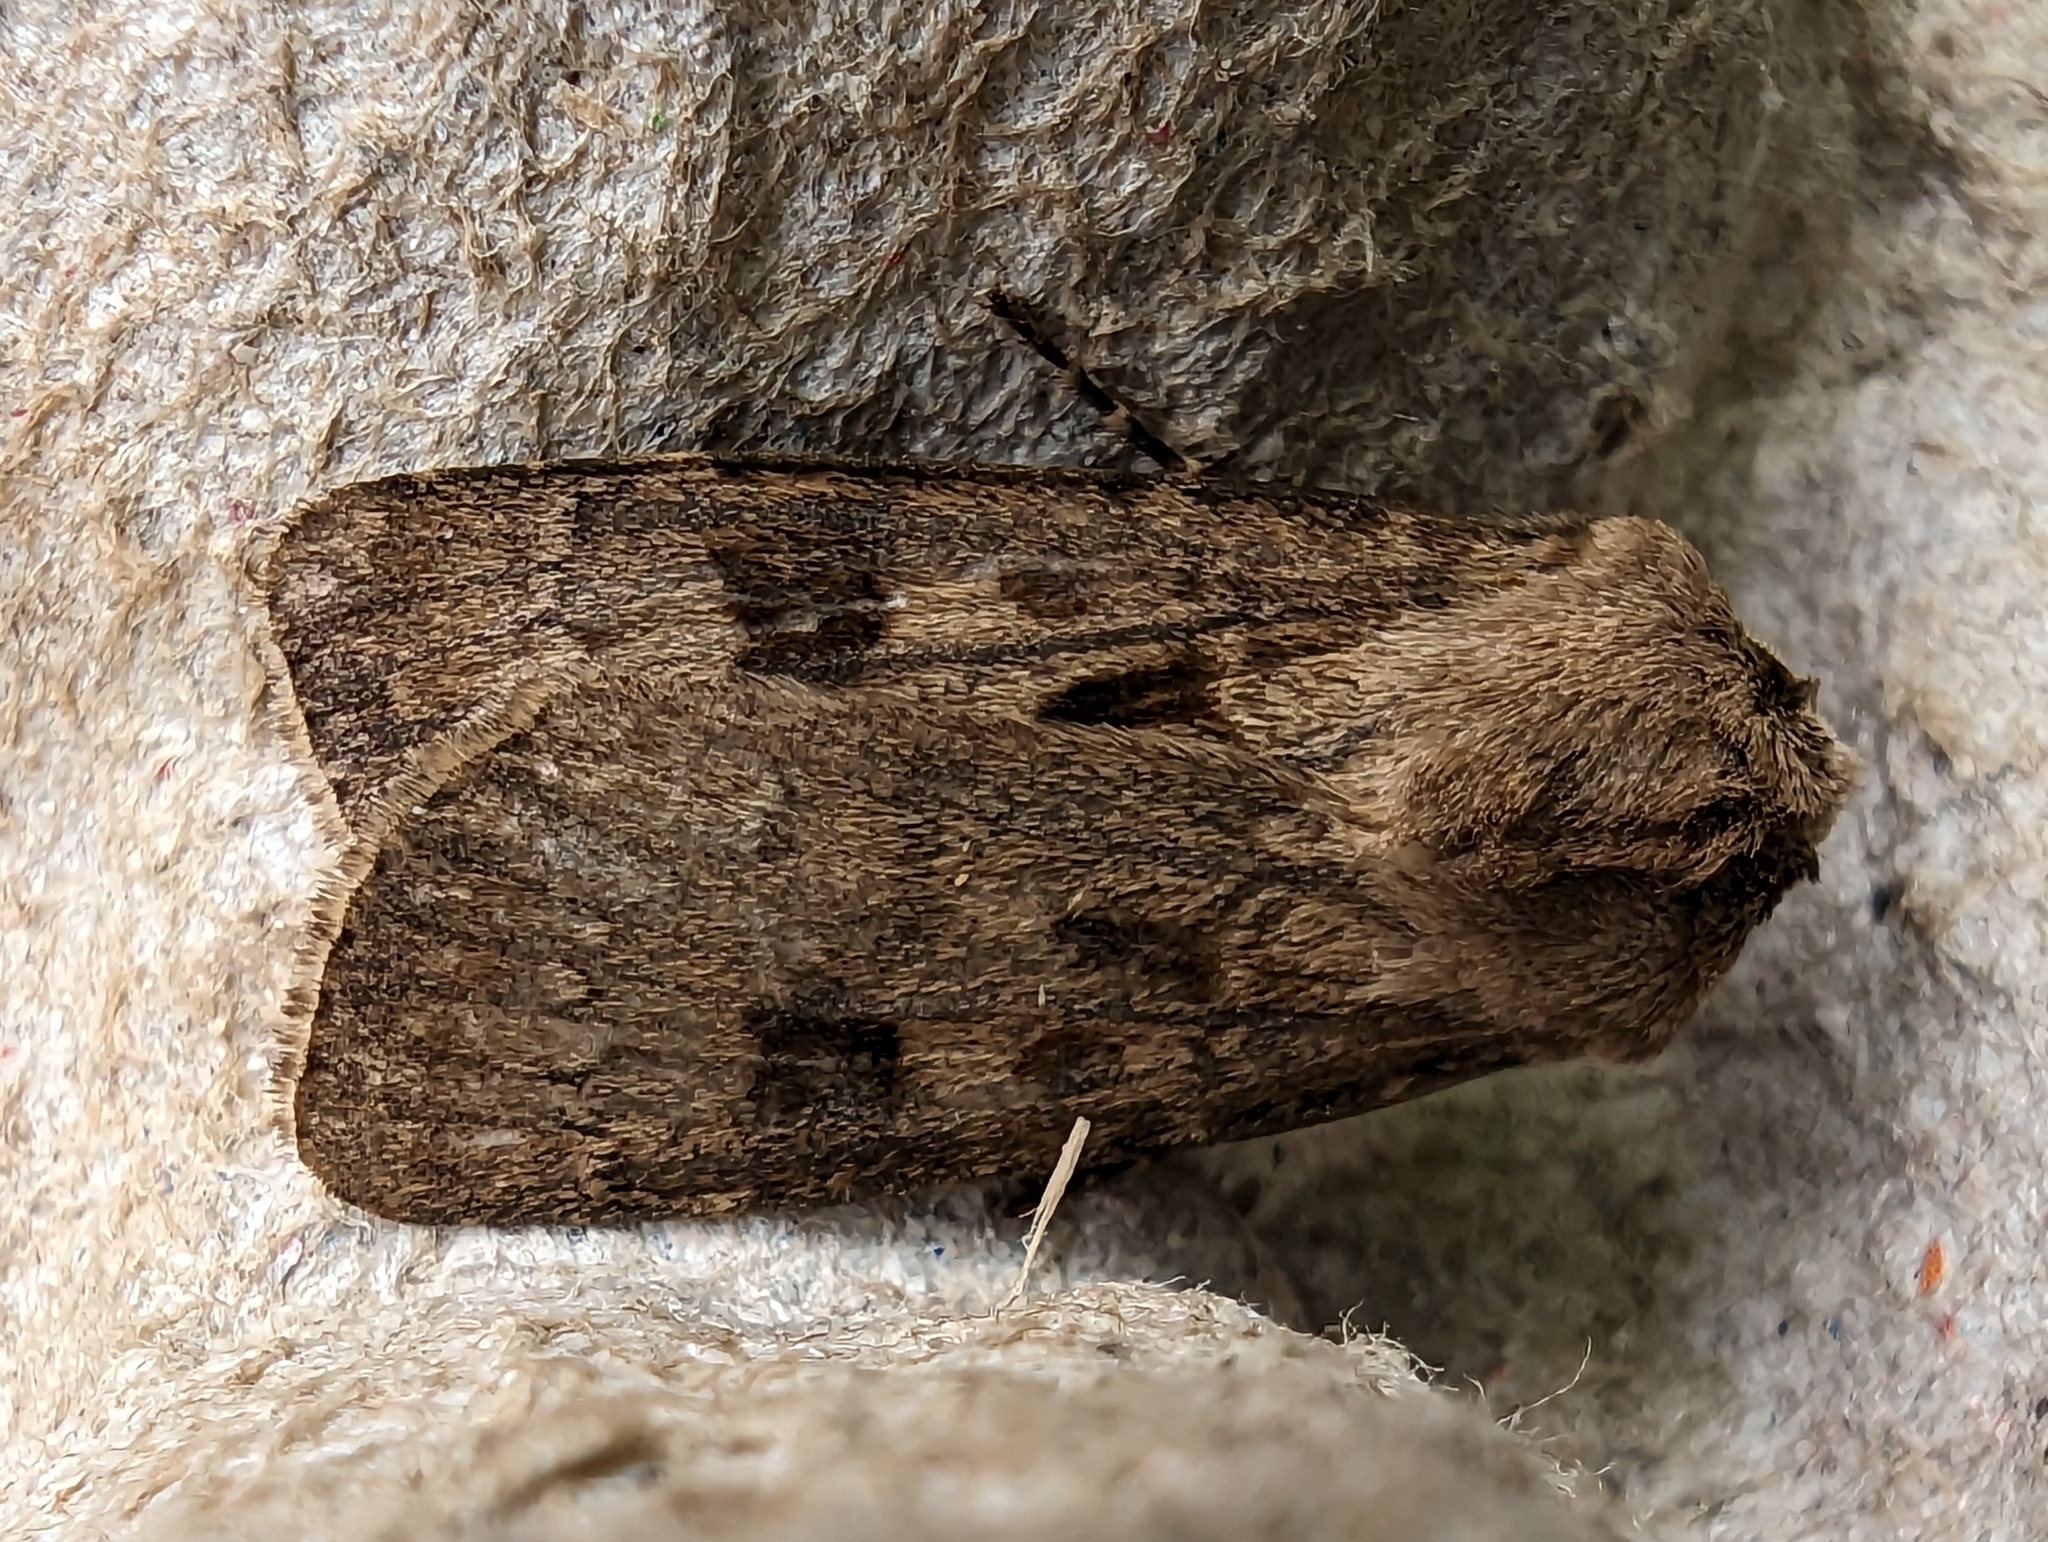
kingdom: Animalia
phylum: Arthropoda
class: Insecta
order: Lepidoptera
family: Noctuidae
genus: Agrotis
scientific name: Agrotis exclamationis
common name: Heart and dart
